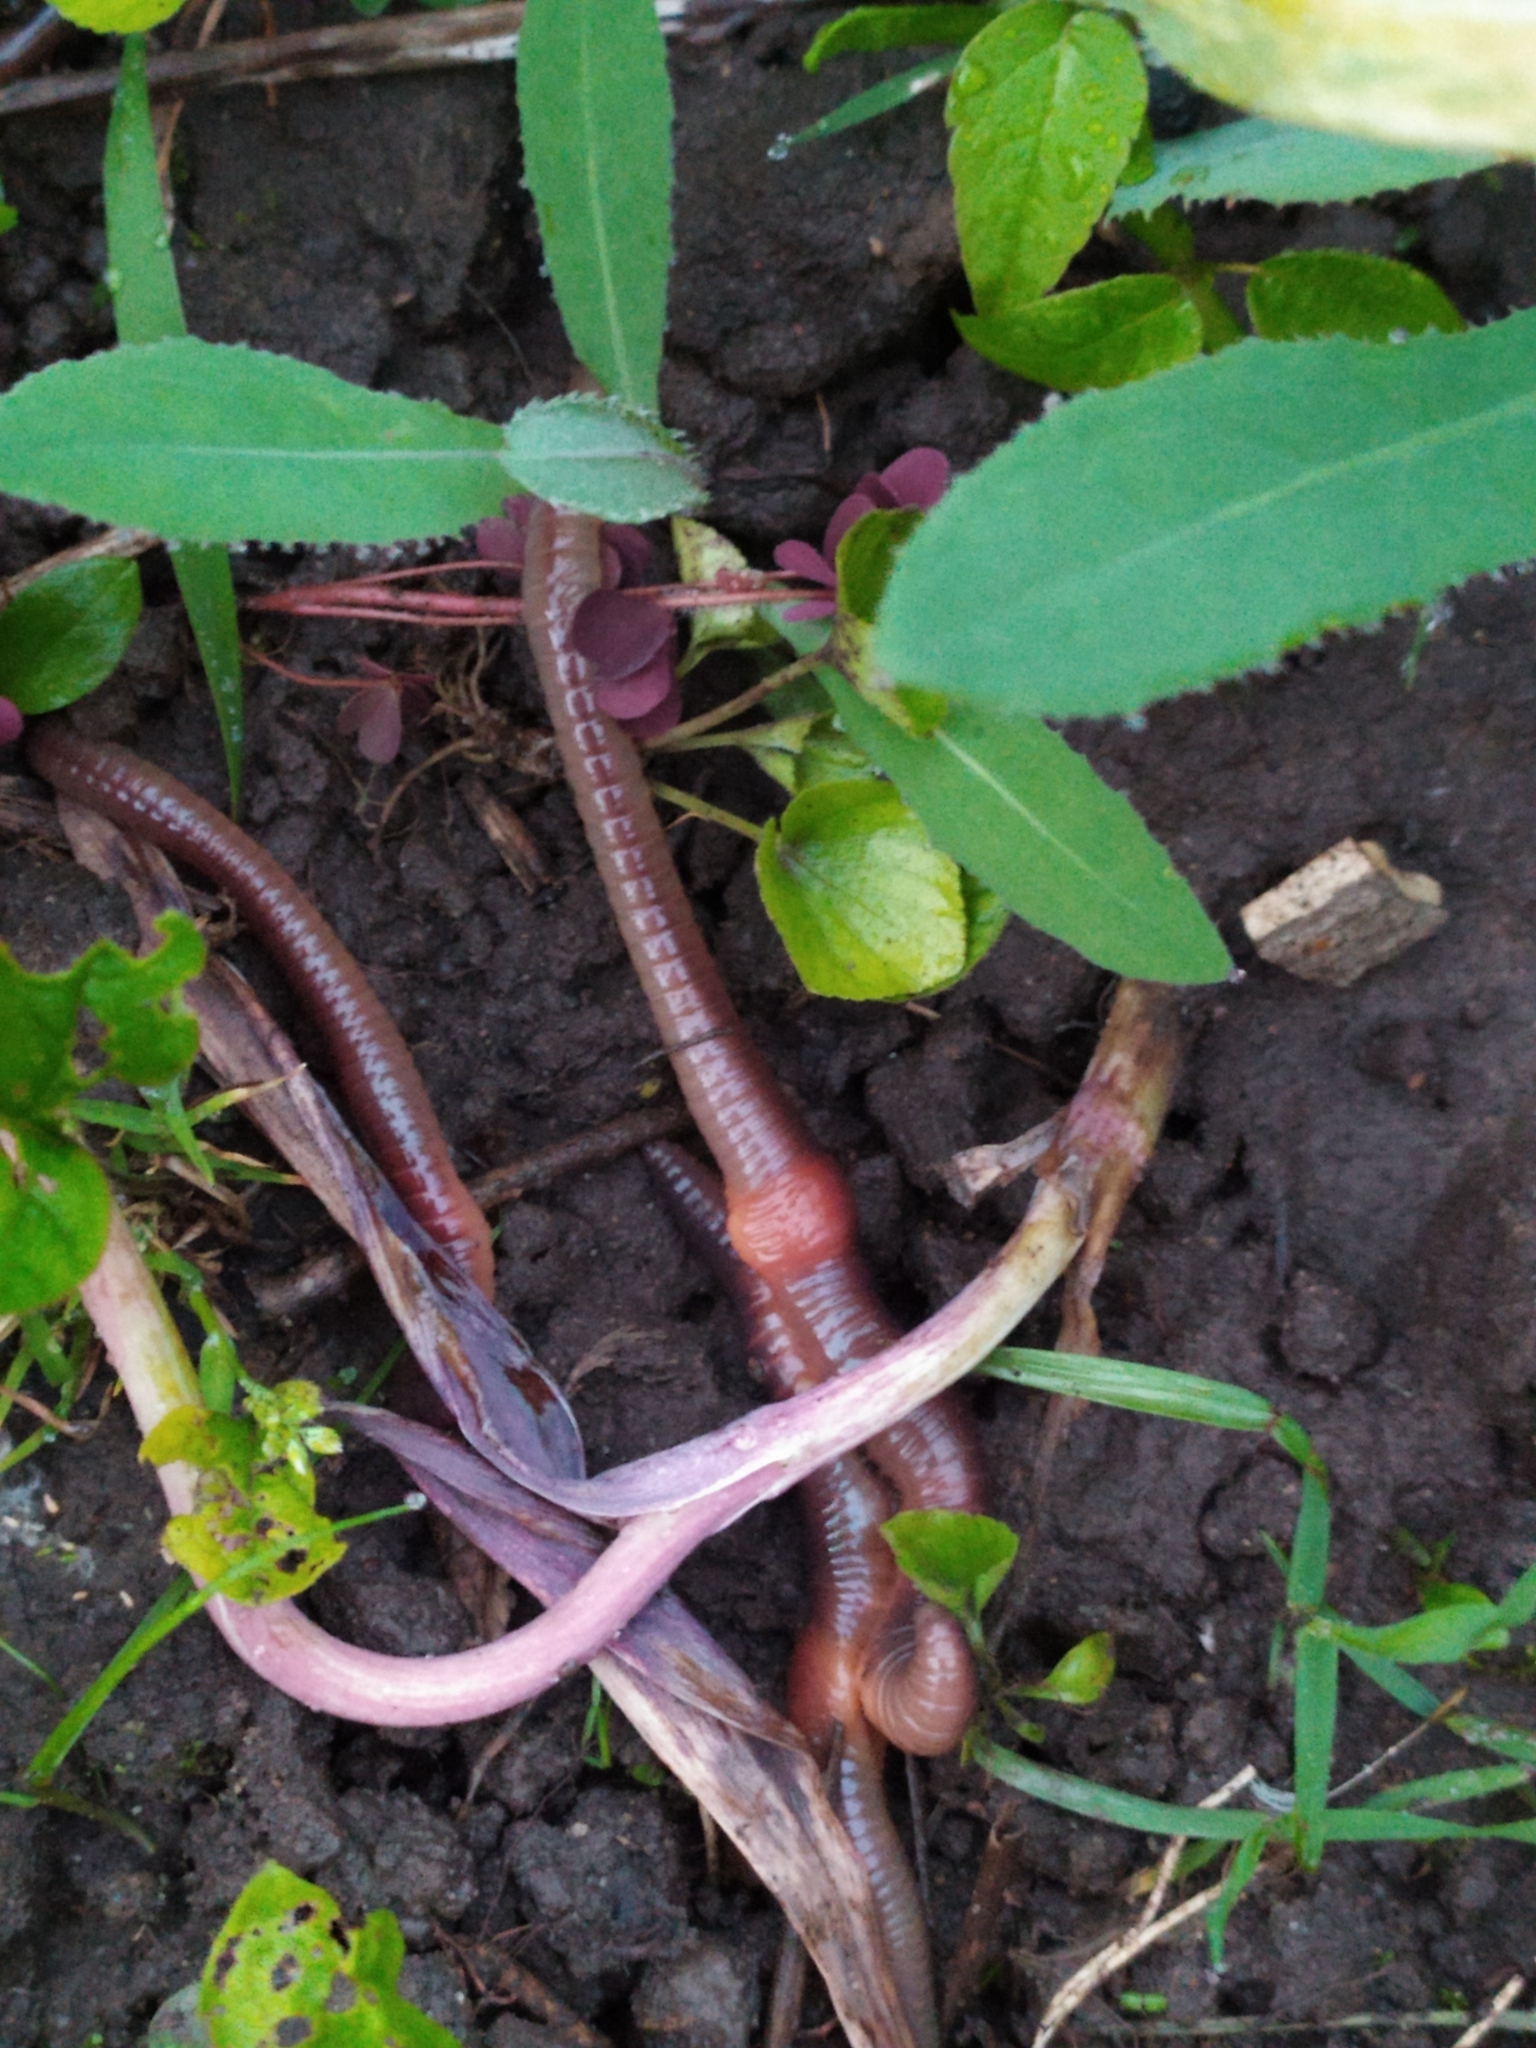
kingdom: Animalia
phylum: Annelida
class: Clitellata
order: Crassiclitellata
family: Lumbricidae
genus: Lumbricus
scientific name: Lumbricus terrestris
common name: Common earthworm
